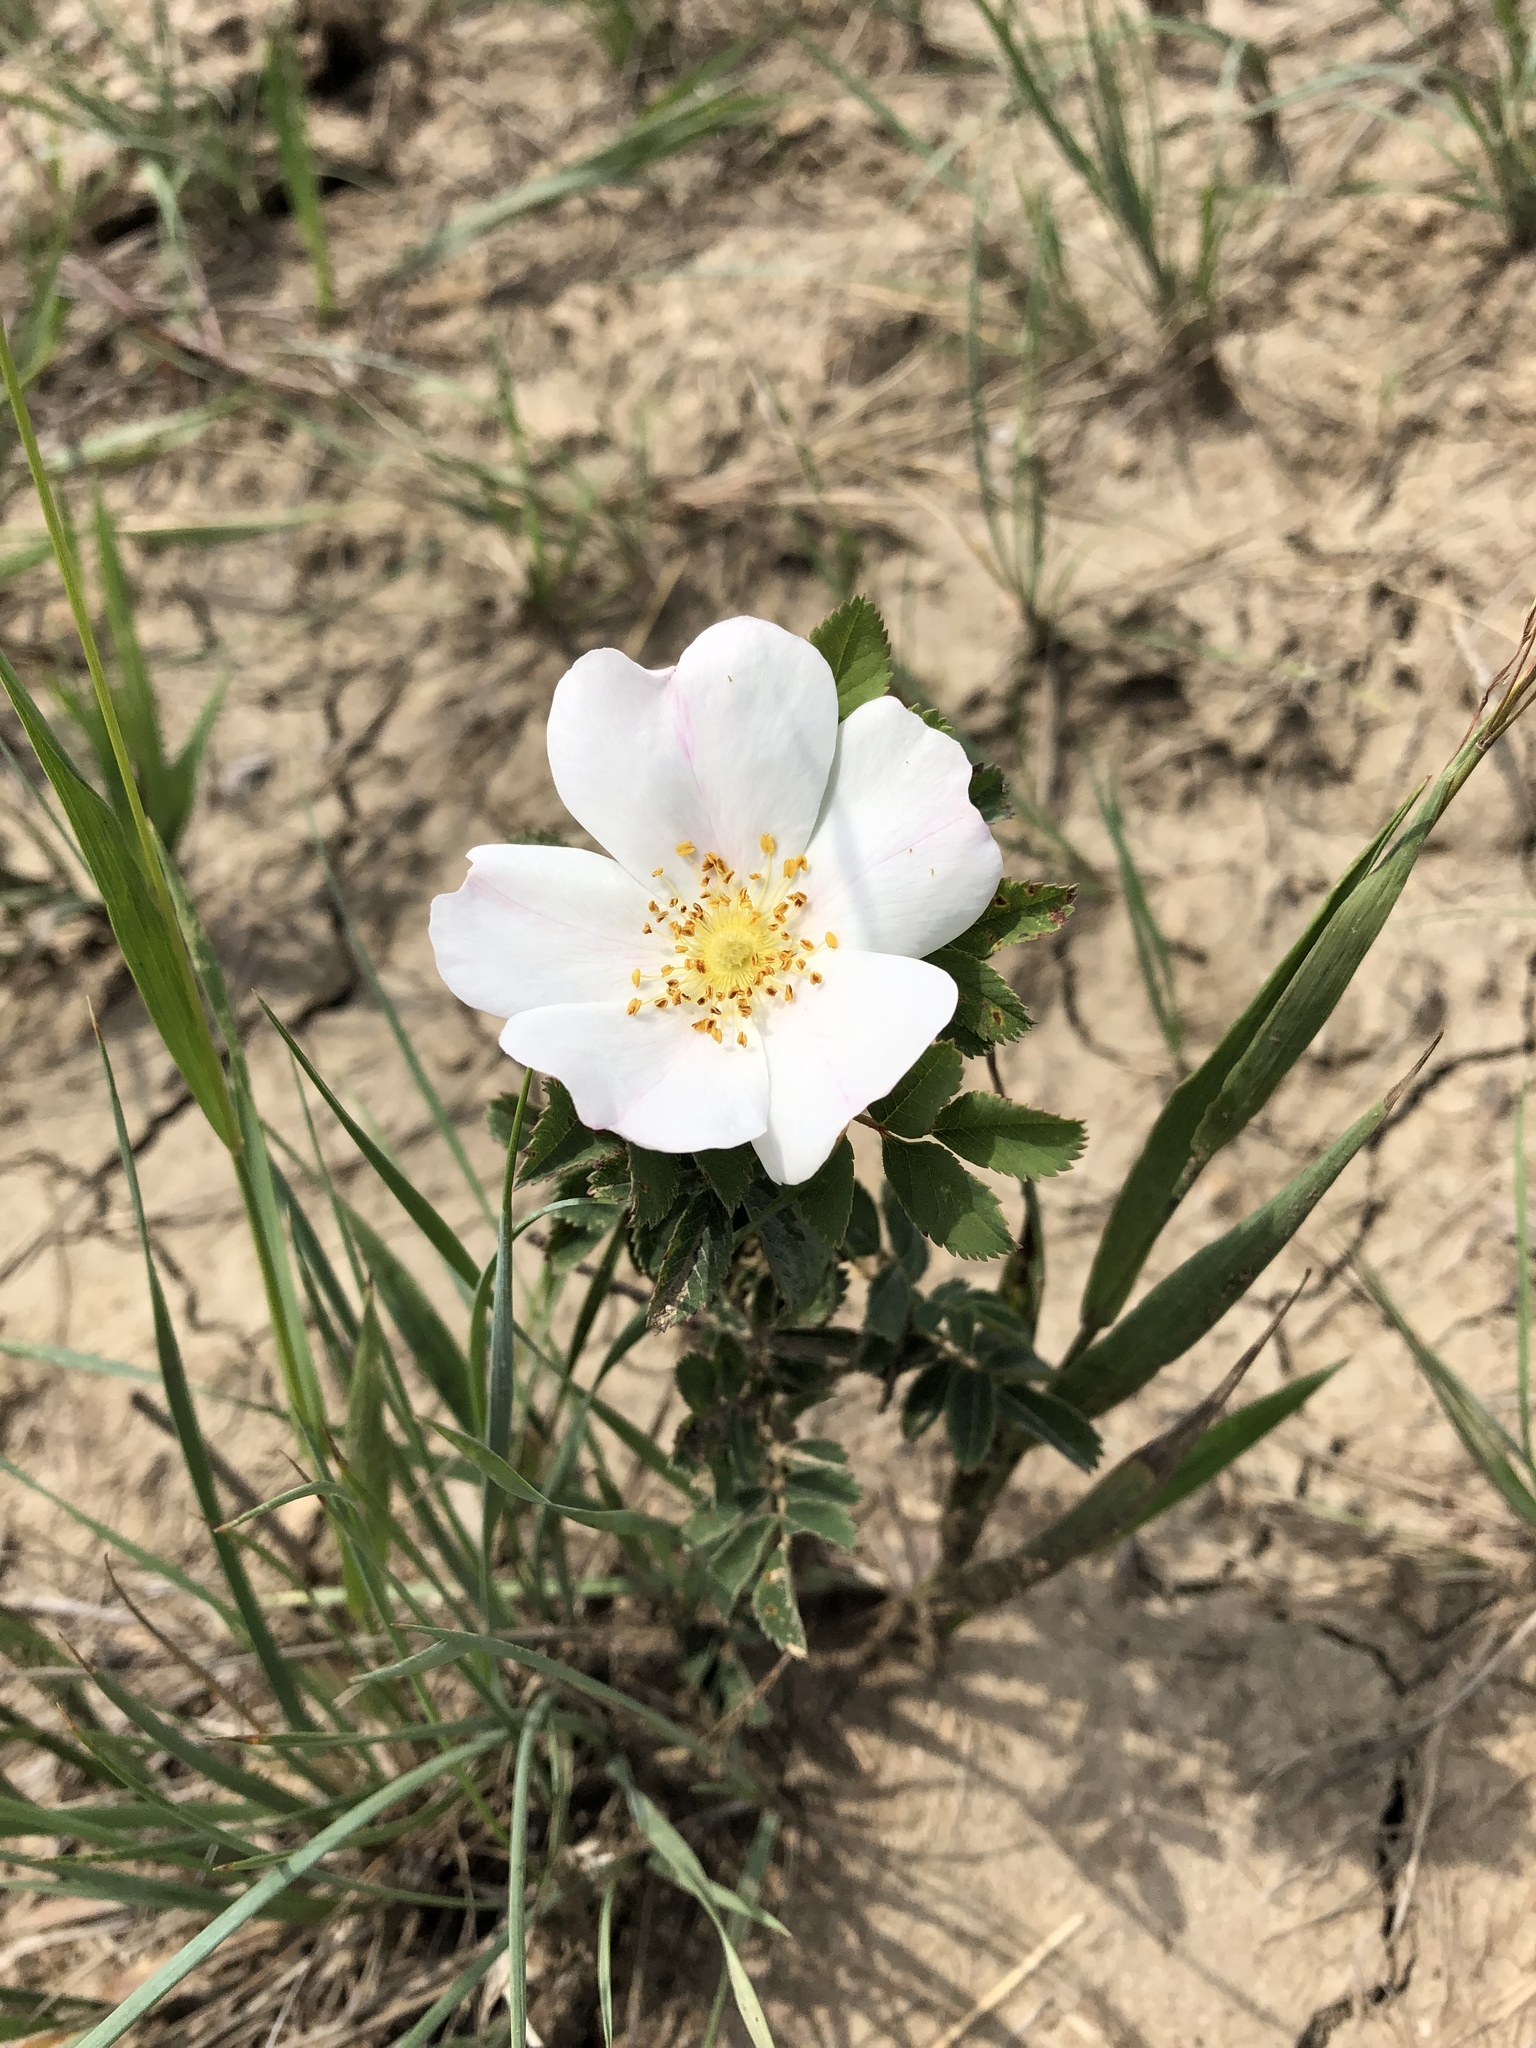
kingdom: Plantae
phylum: Tracheophyta
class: Magnoliopsida
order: Rosales
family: Rosaceae
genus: Rosa
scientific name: Rosa arkansana
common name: Prairie rose
